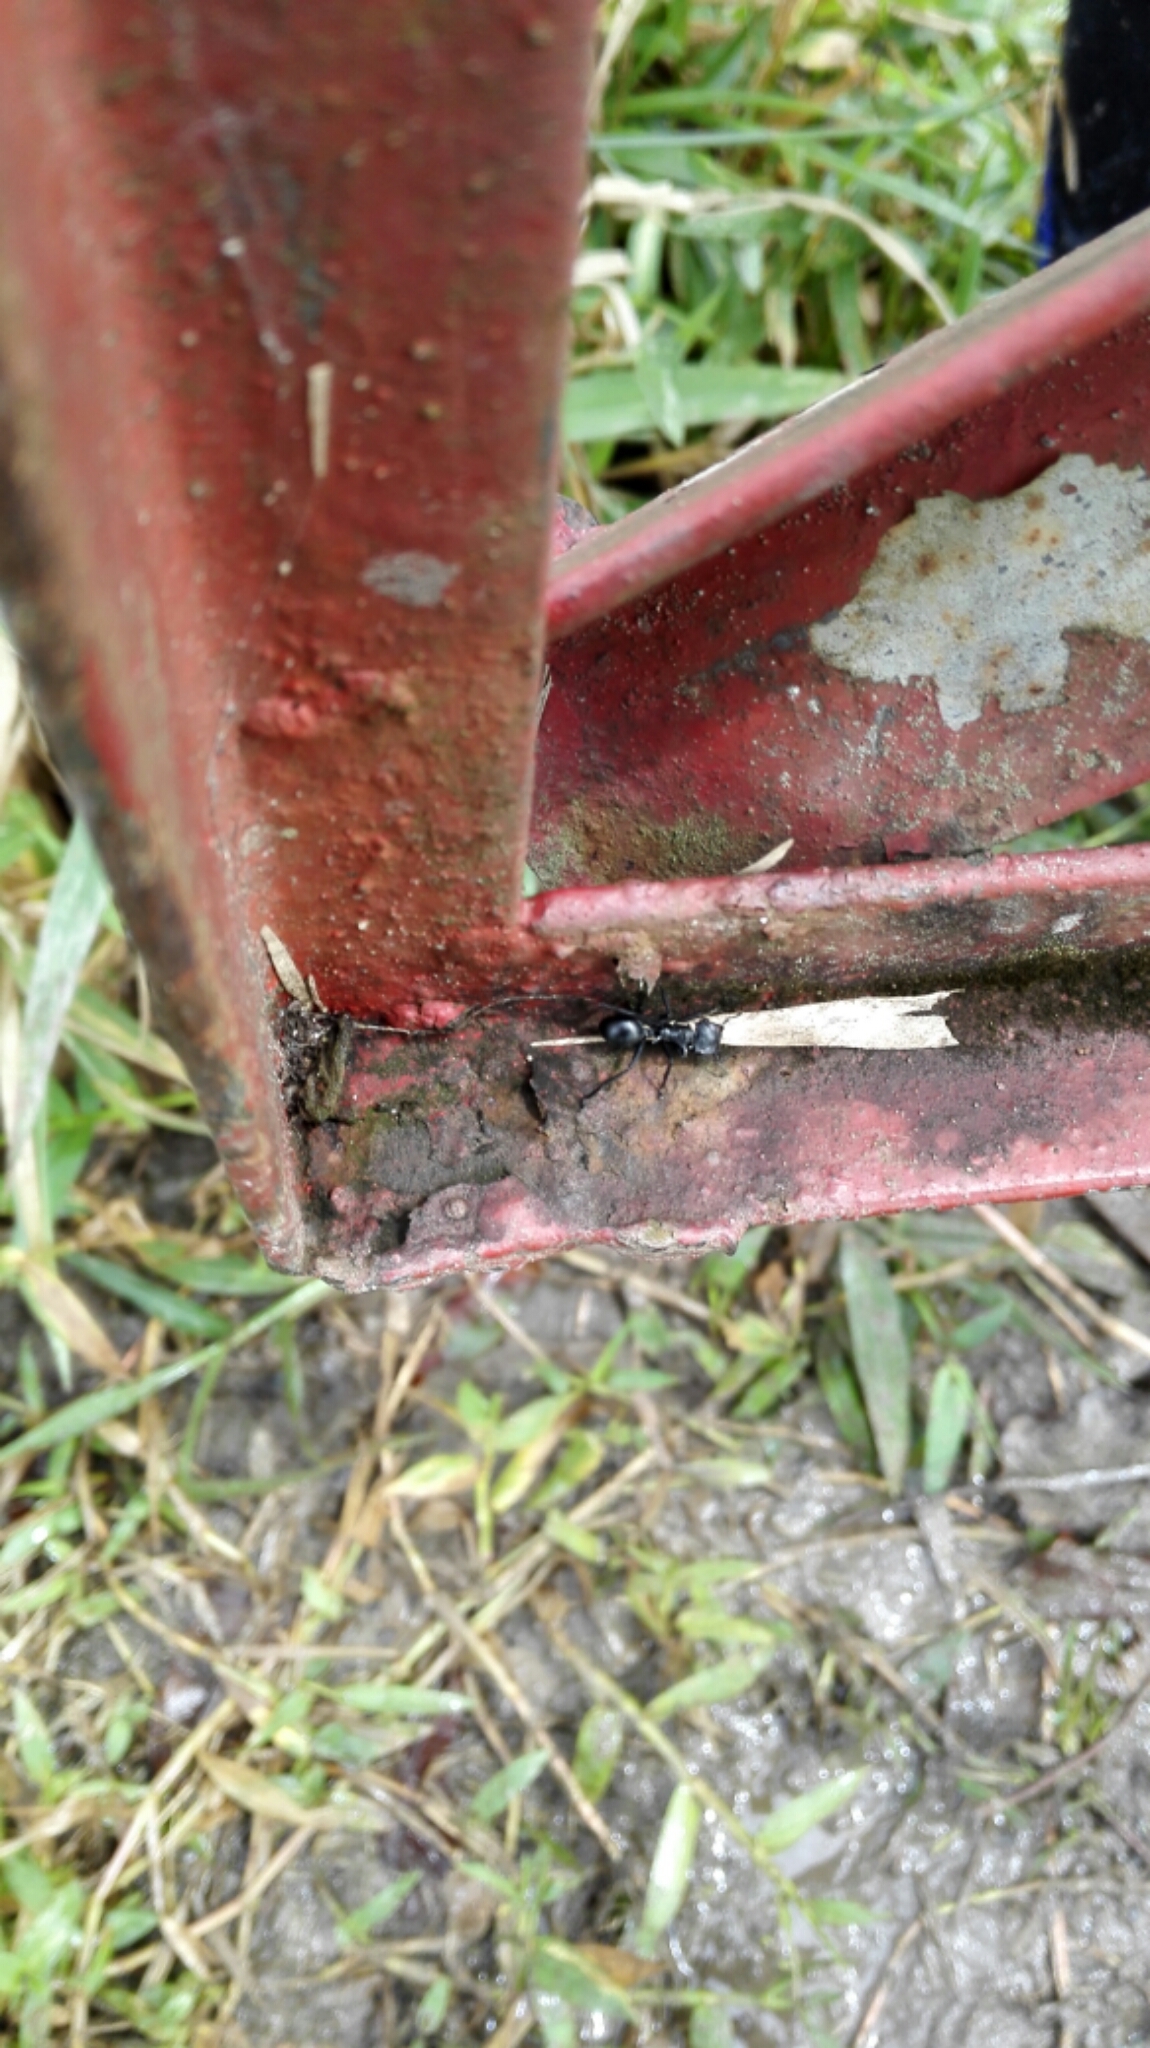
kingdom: Animalia
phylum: Arthropoda
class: Insecta
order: Hymenoptera
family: Formicidae
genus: Cephalotes
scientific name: Cephalotes atratus
